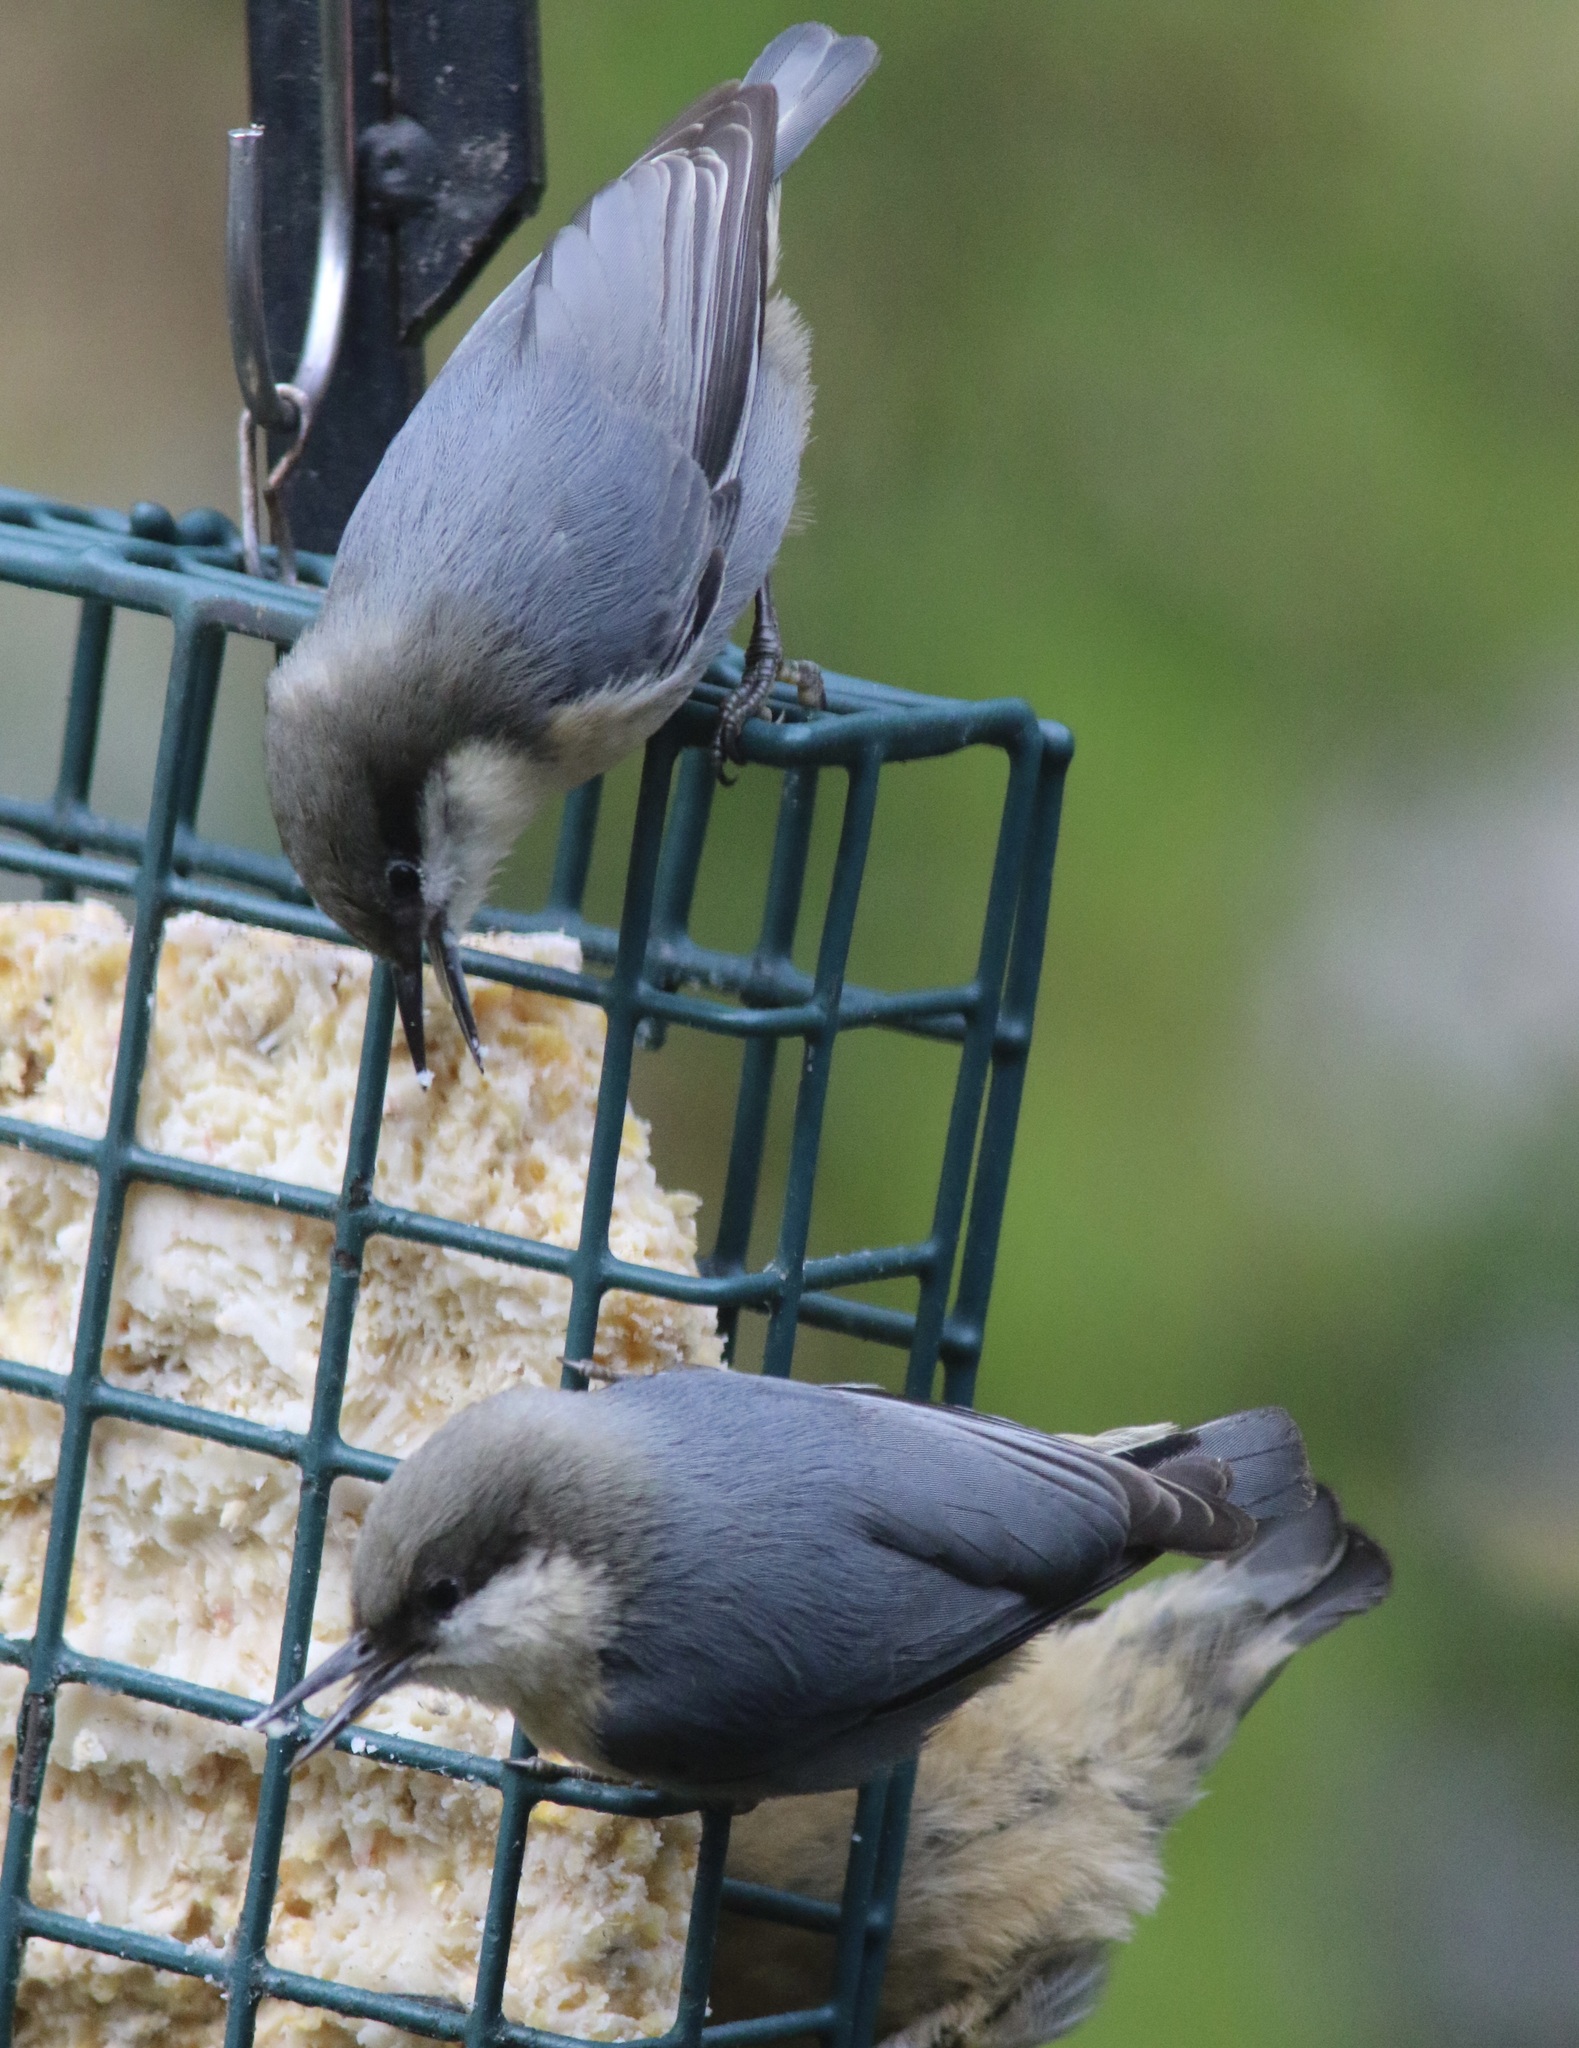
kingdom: Animalia
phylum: Chordata
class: Aves
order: Passeriformes
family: Sittidae
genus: Sitta
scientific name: Sitta pygmaea
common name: Pygmy nuthatch
